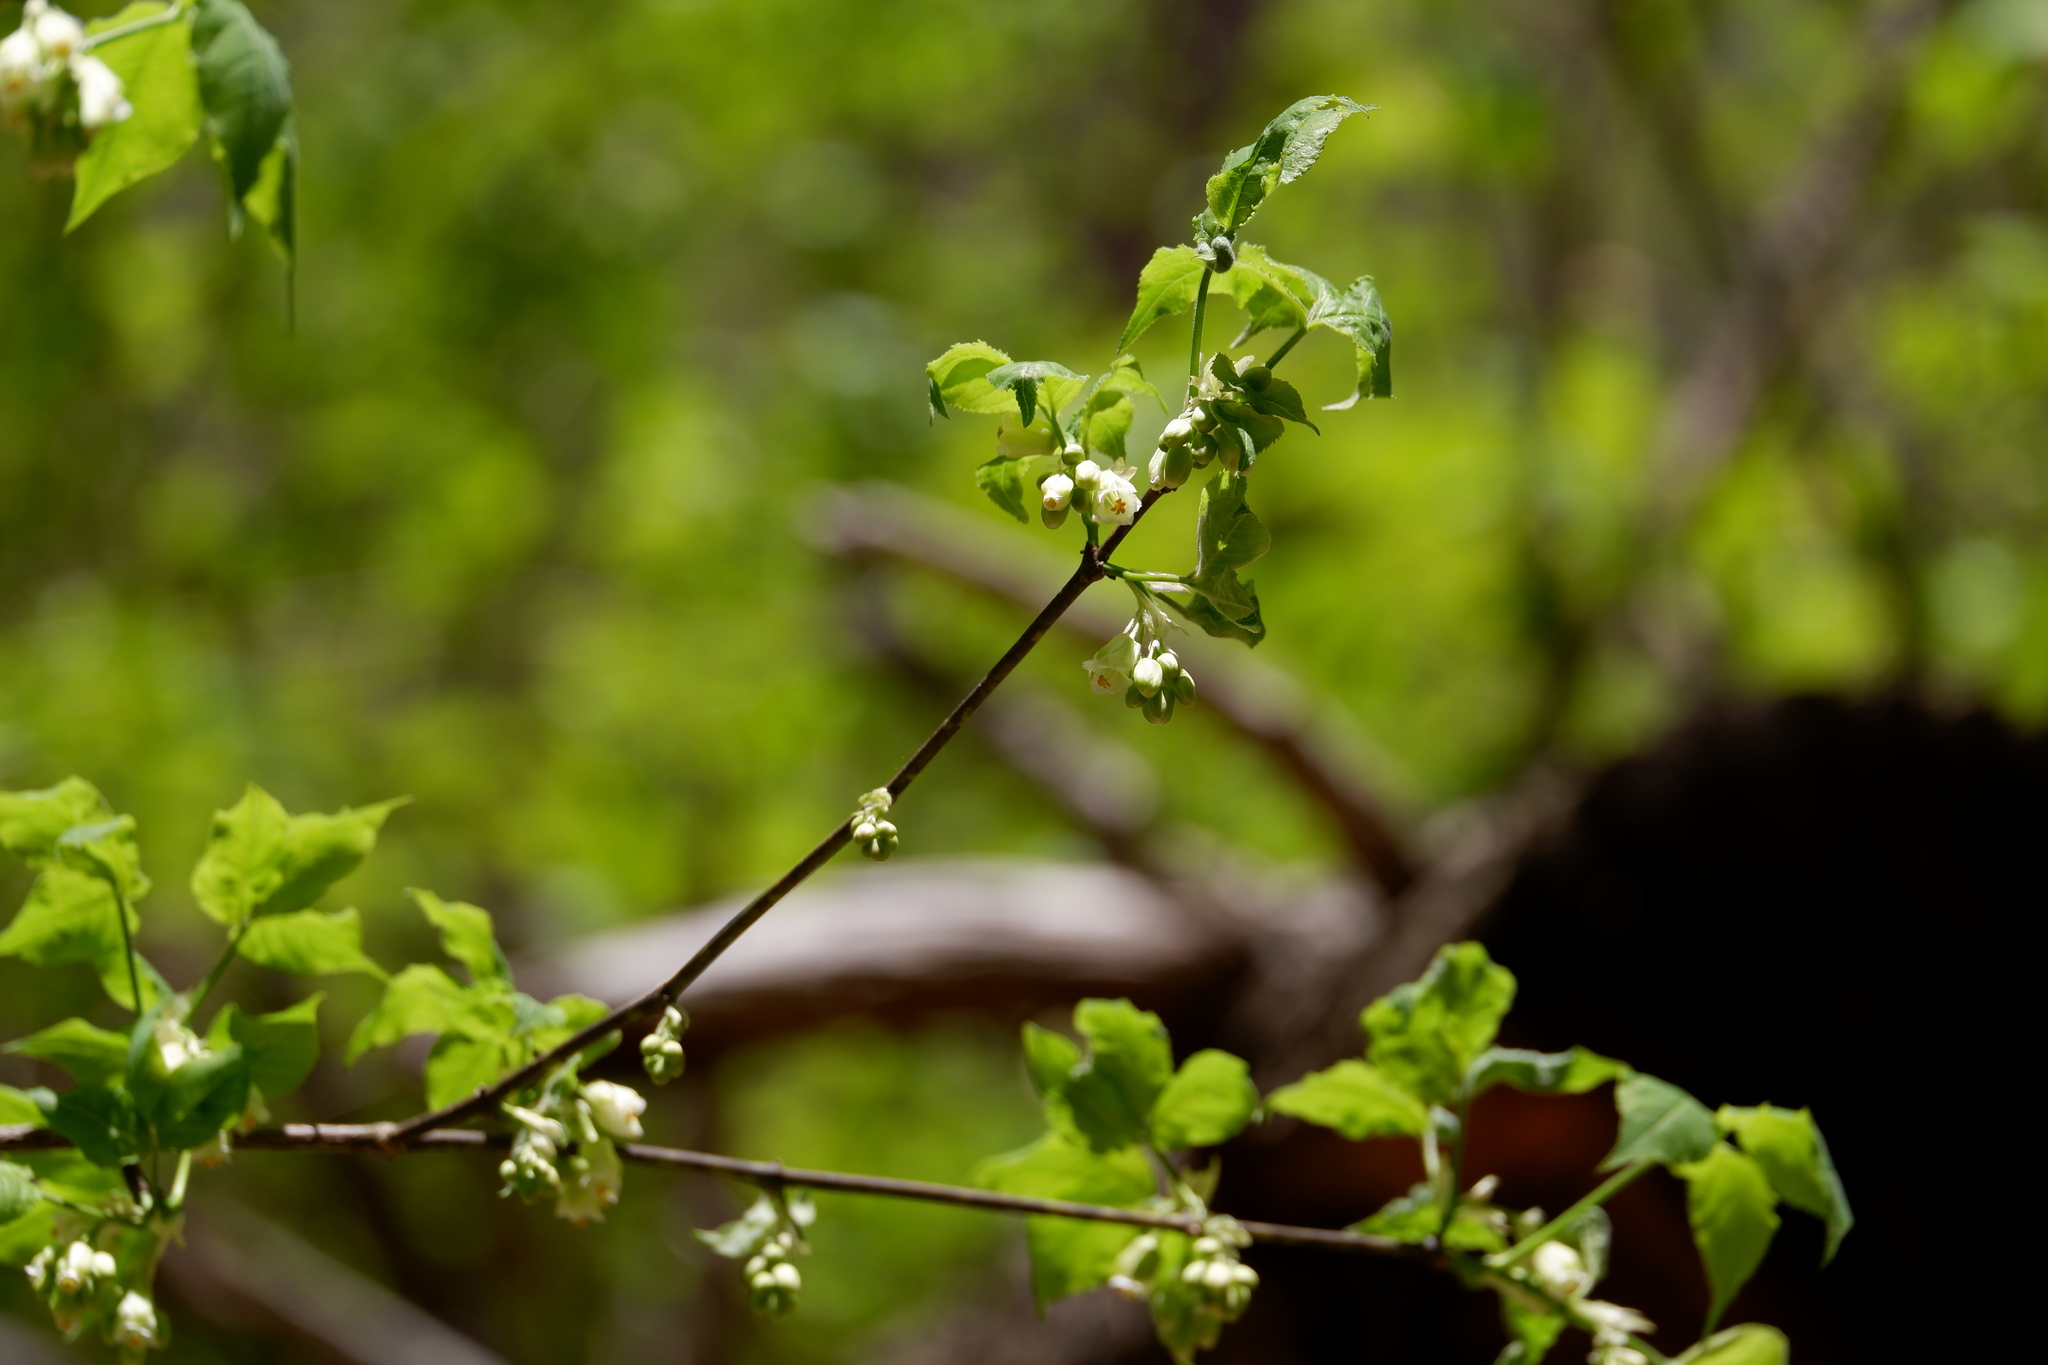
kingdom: Plantae
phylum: Tracheophyta
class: Magnoliopsida
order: Crossosomatales
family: Staphyleaceae
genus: Staphylea
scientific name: Staphylea trifolia
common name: American bladdernut
